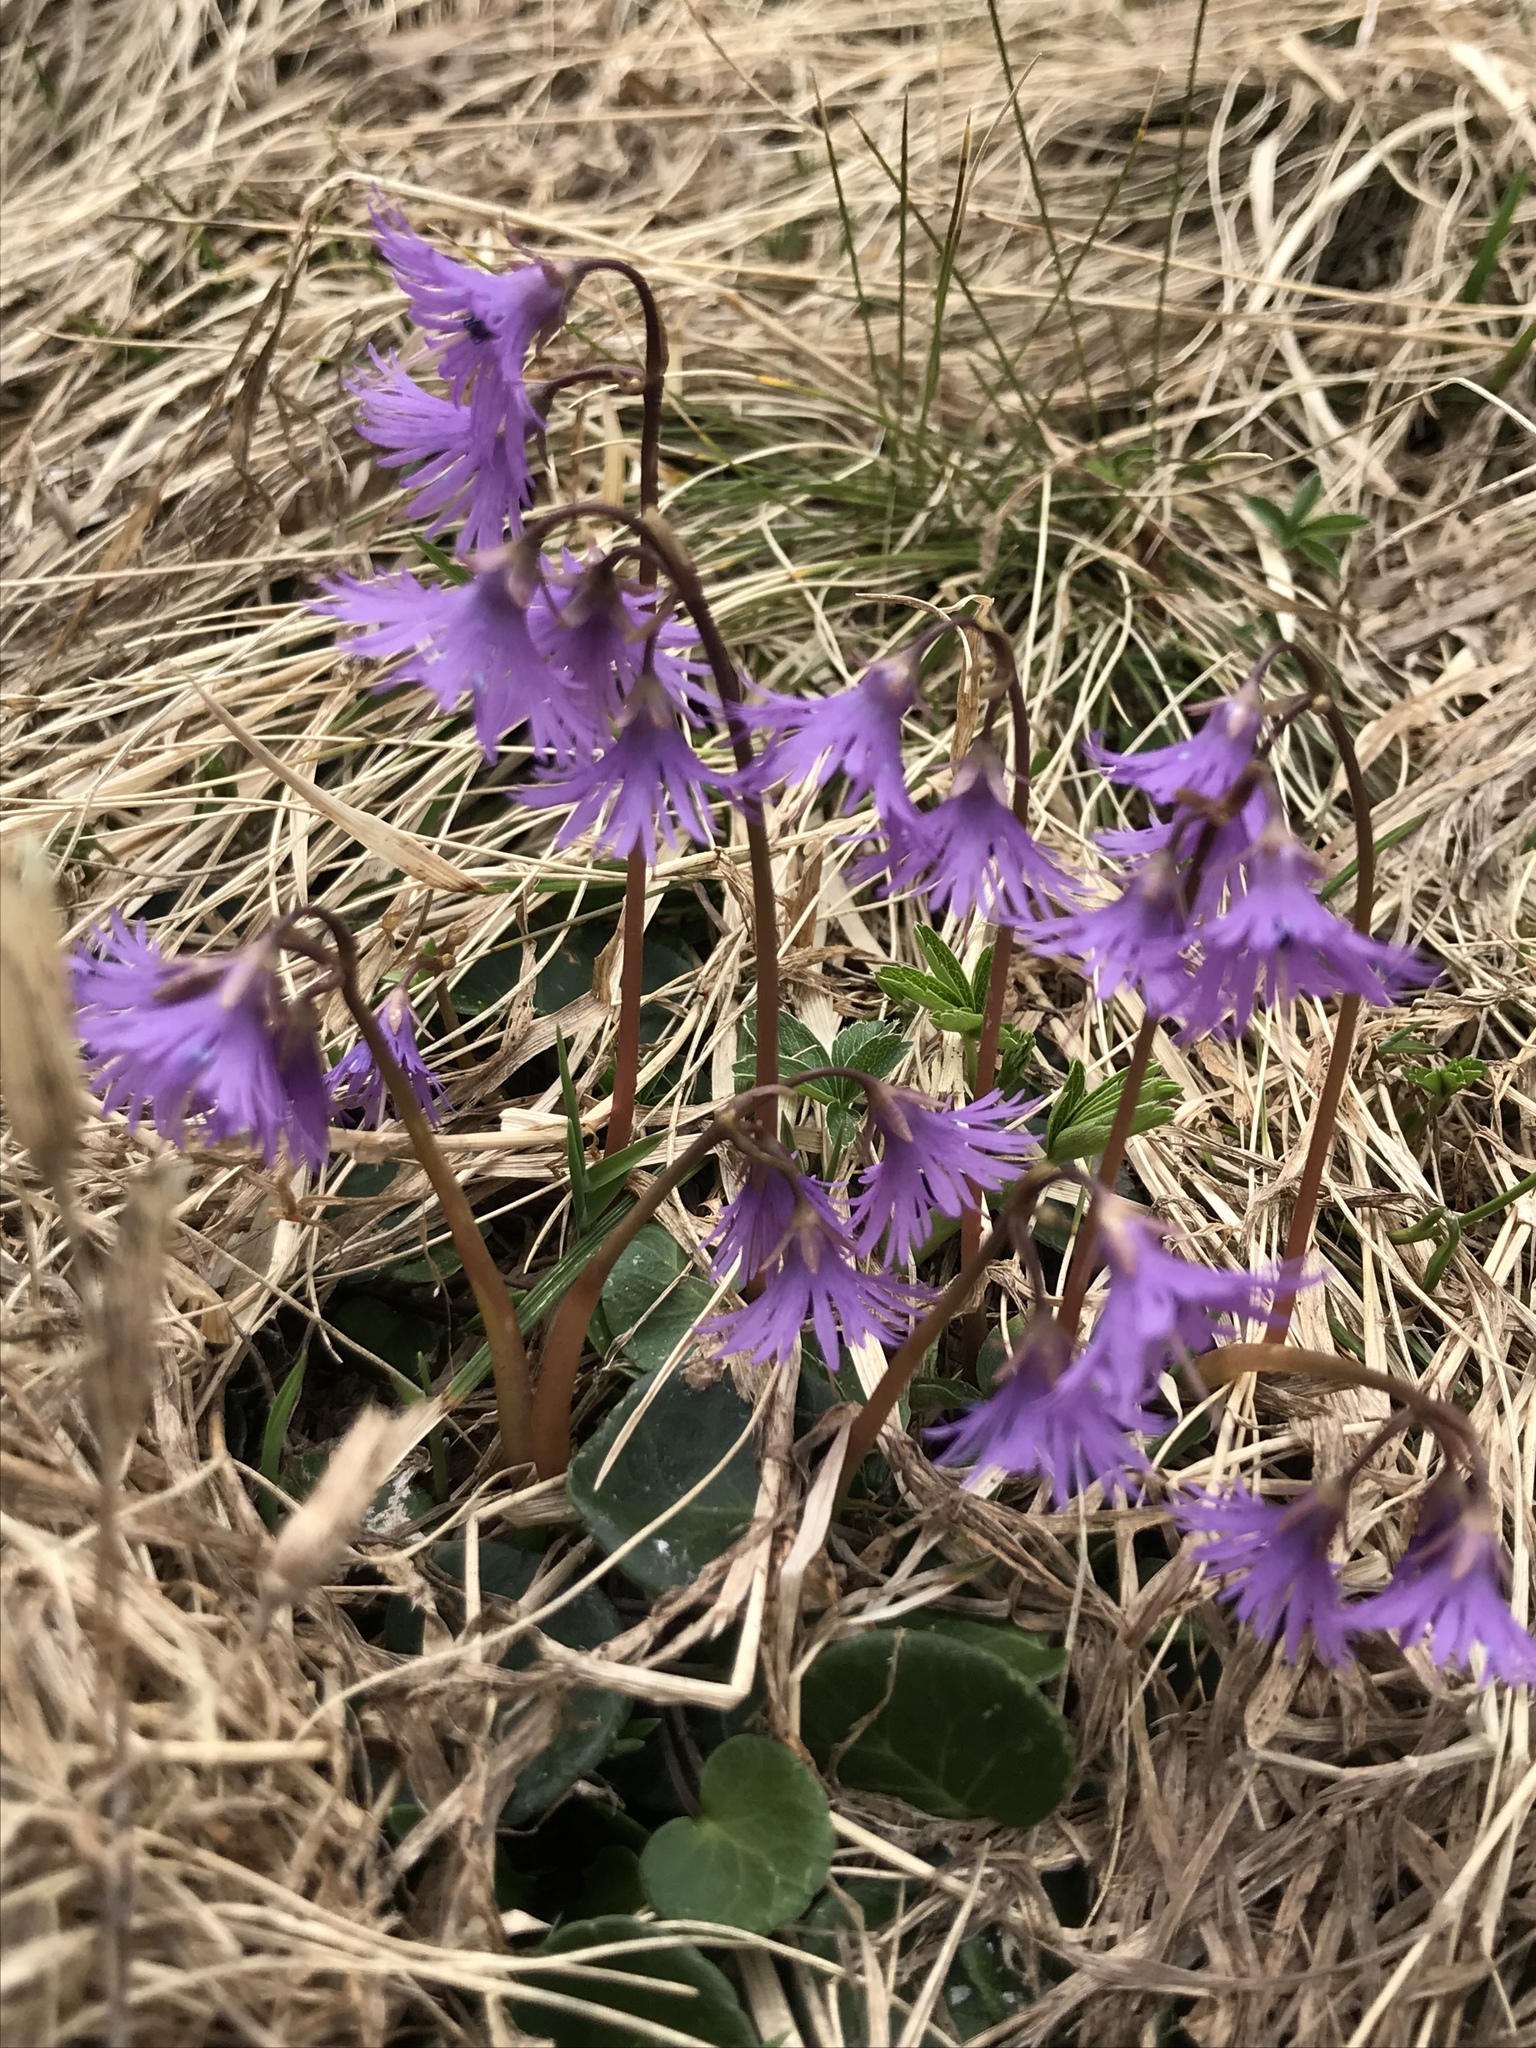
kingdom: Plantae
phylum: Tracheophyta
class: Magnoliopsida
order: Ericales
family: Primulaceae
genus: Soldanella
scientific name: Soldanella alpina
